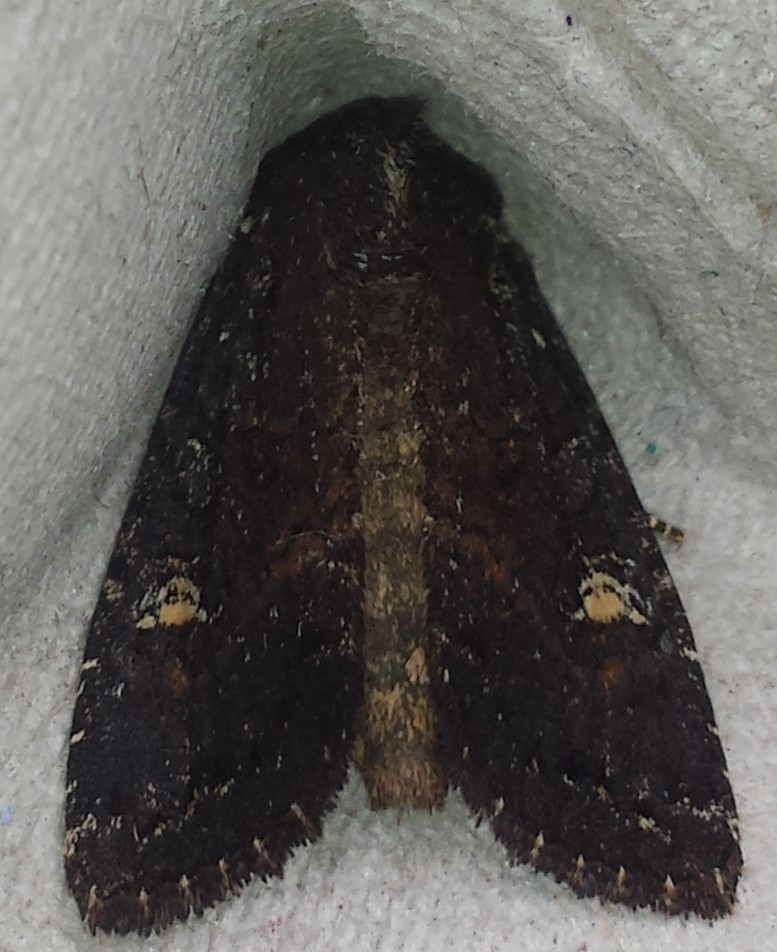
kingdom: Animalia
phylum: Arthropoda
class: Insecta
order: Lepidoptera
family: Noctuidae
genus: Apamea
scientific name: Apamea dubitans
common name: Doubtful apamea moth
